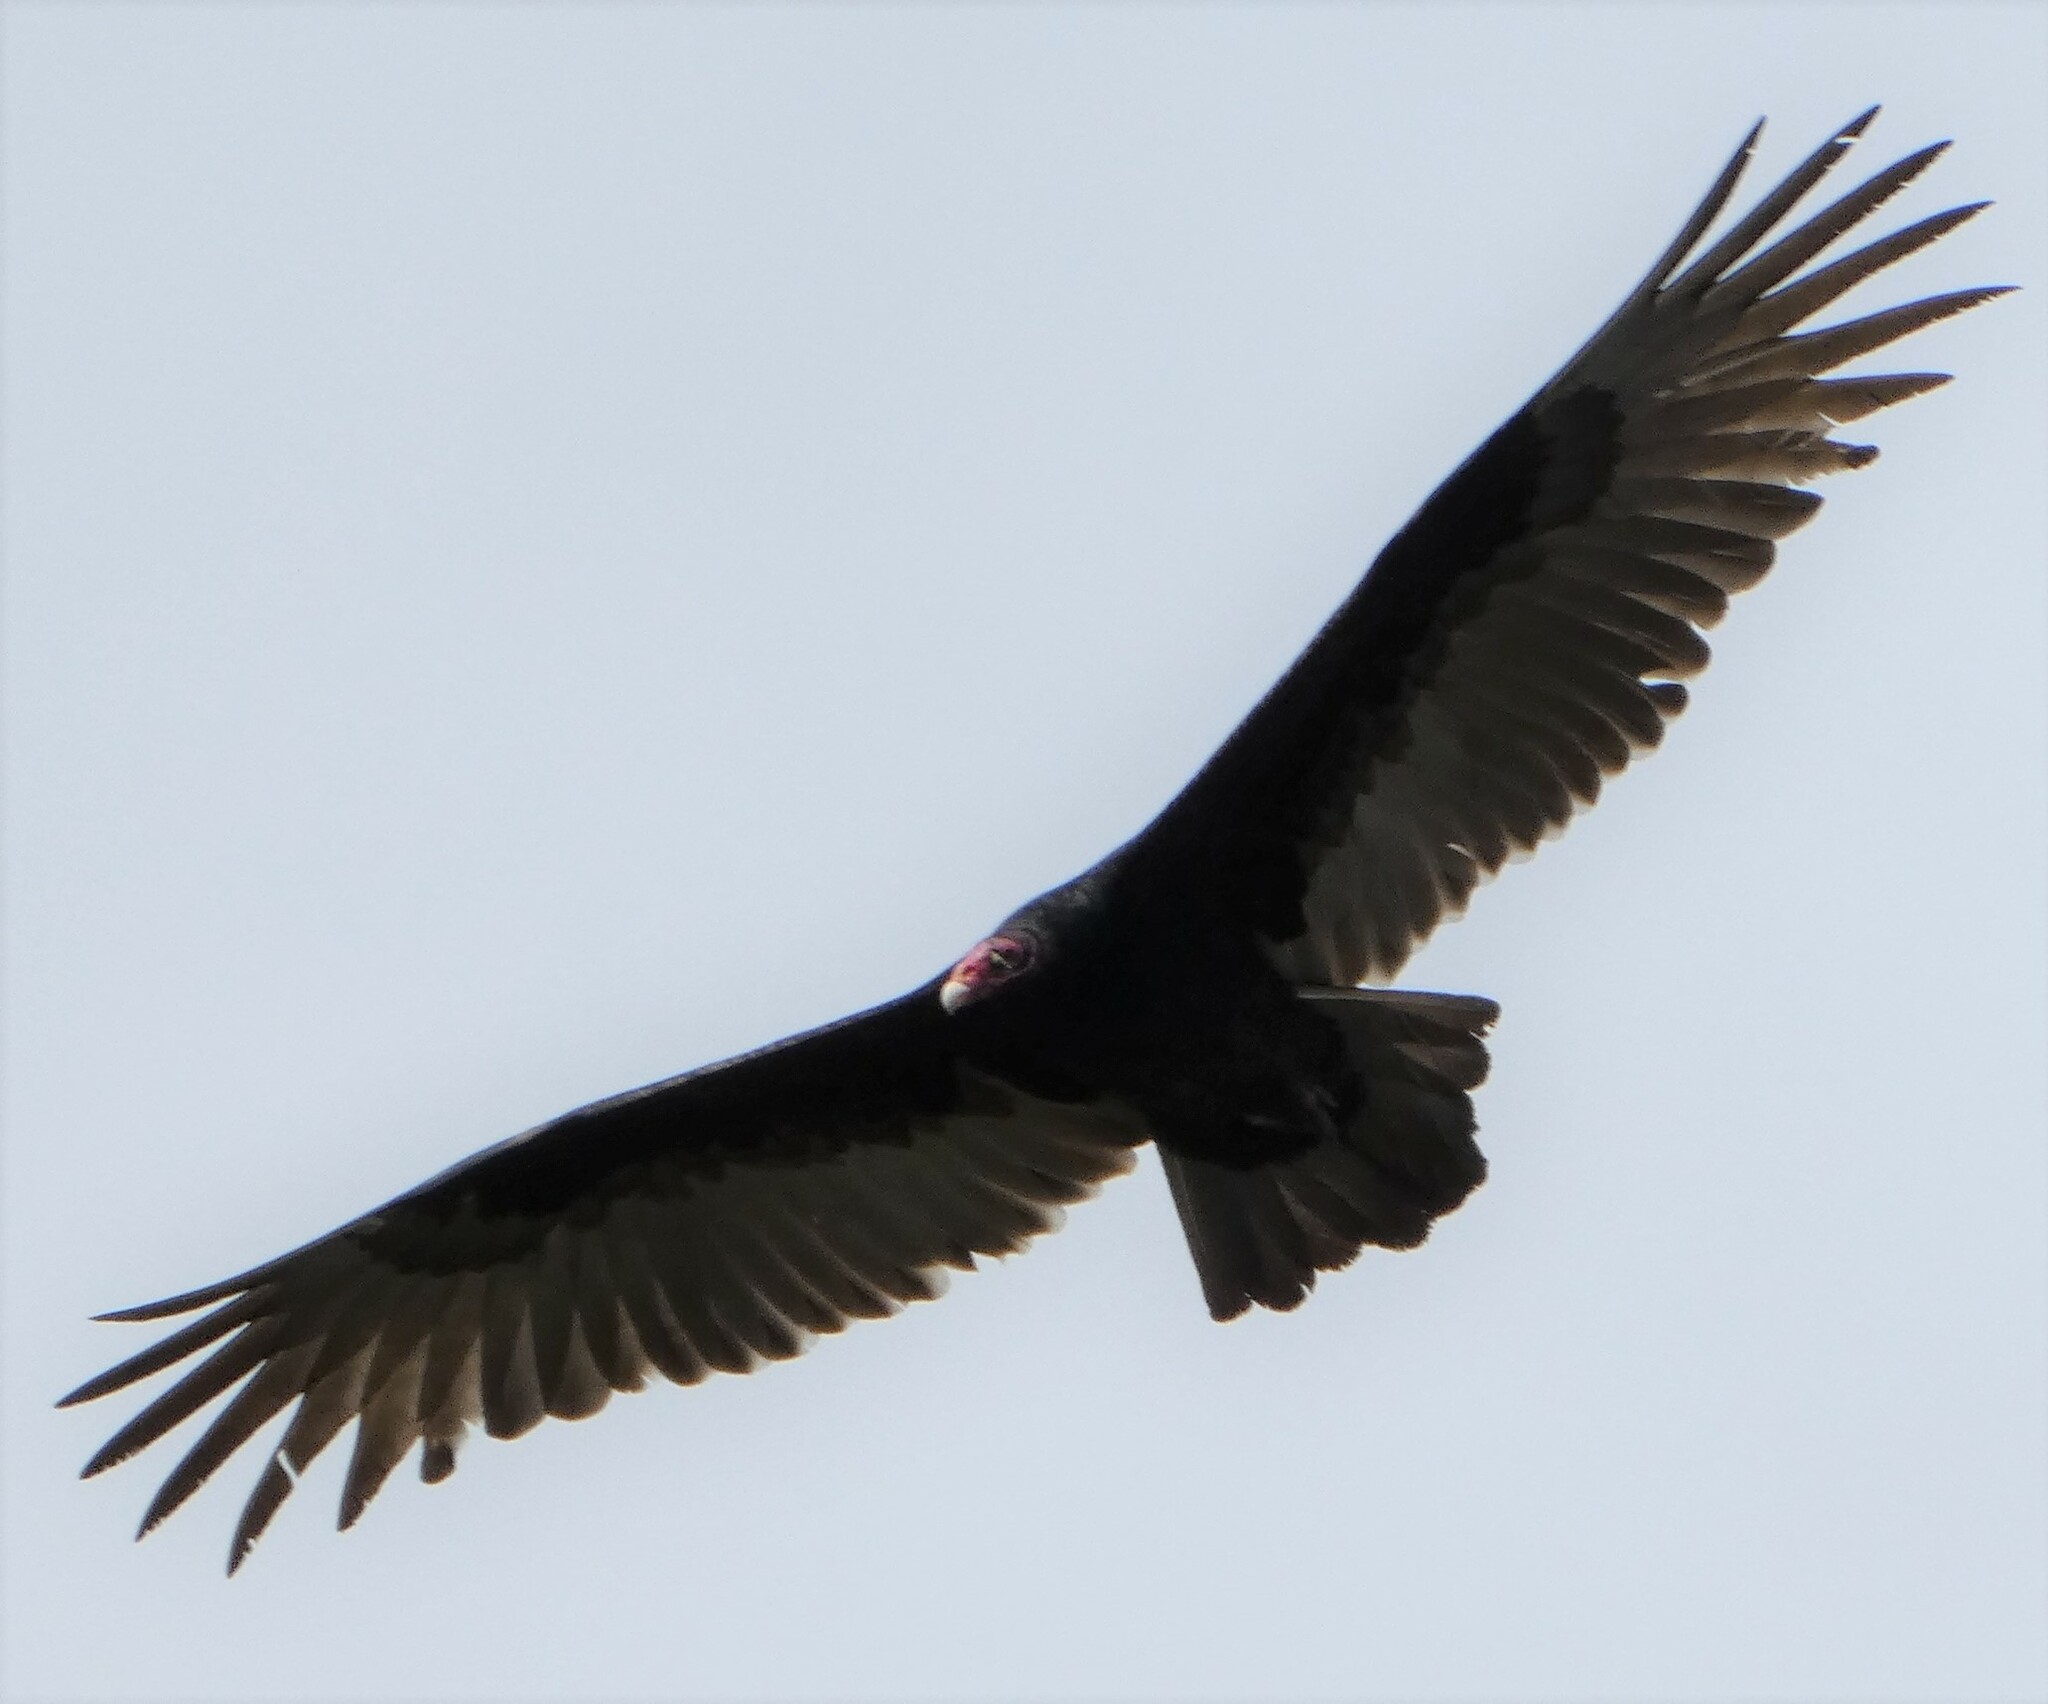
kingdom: Animalia
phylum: Chordata
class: Aves
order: Accipitriformes
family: Cathartidae
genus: Cathartes
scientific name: Cathartes aura
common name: Turkey vulture
